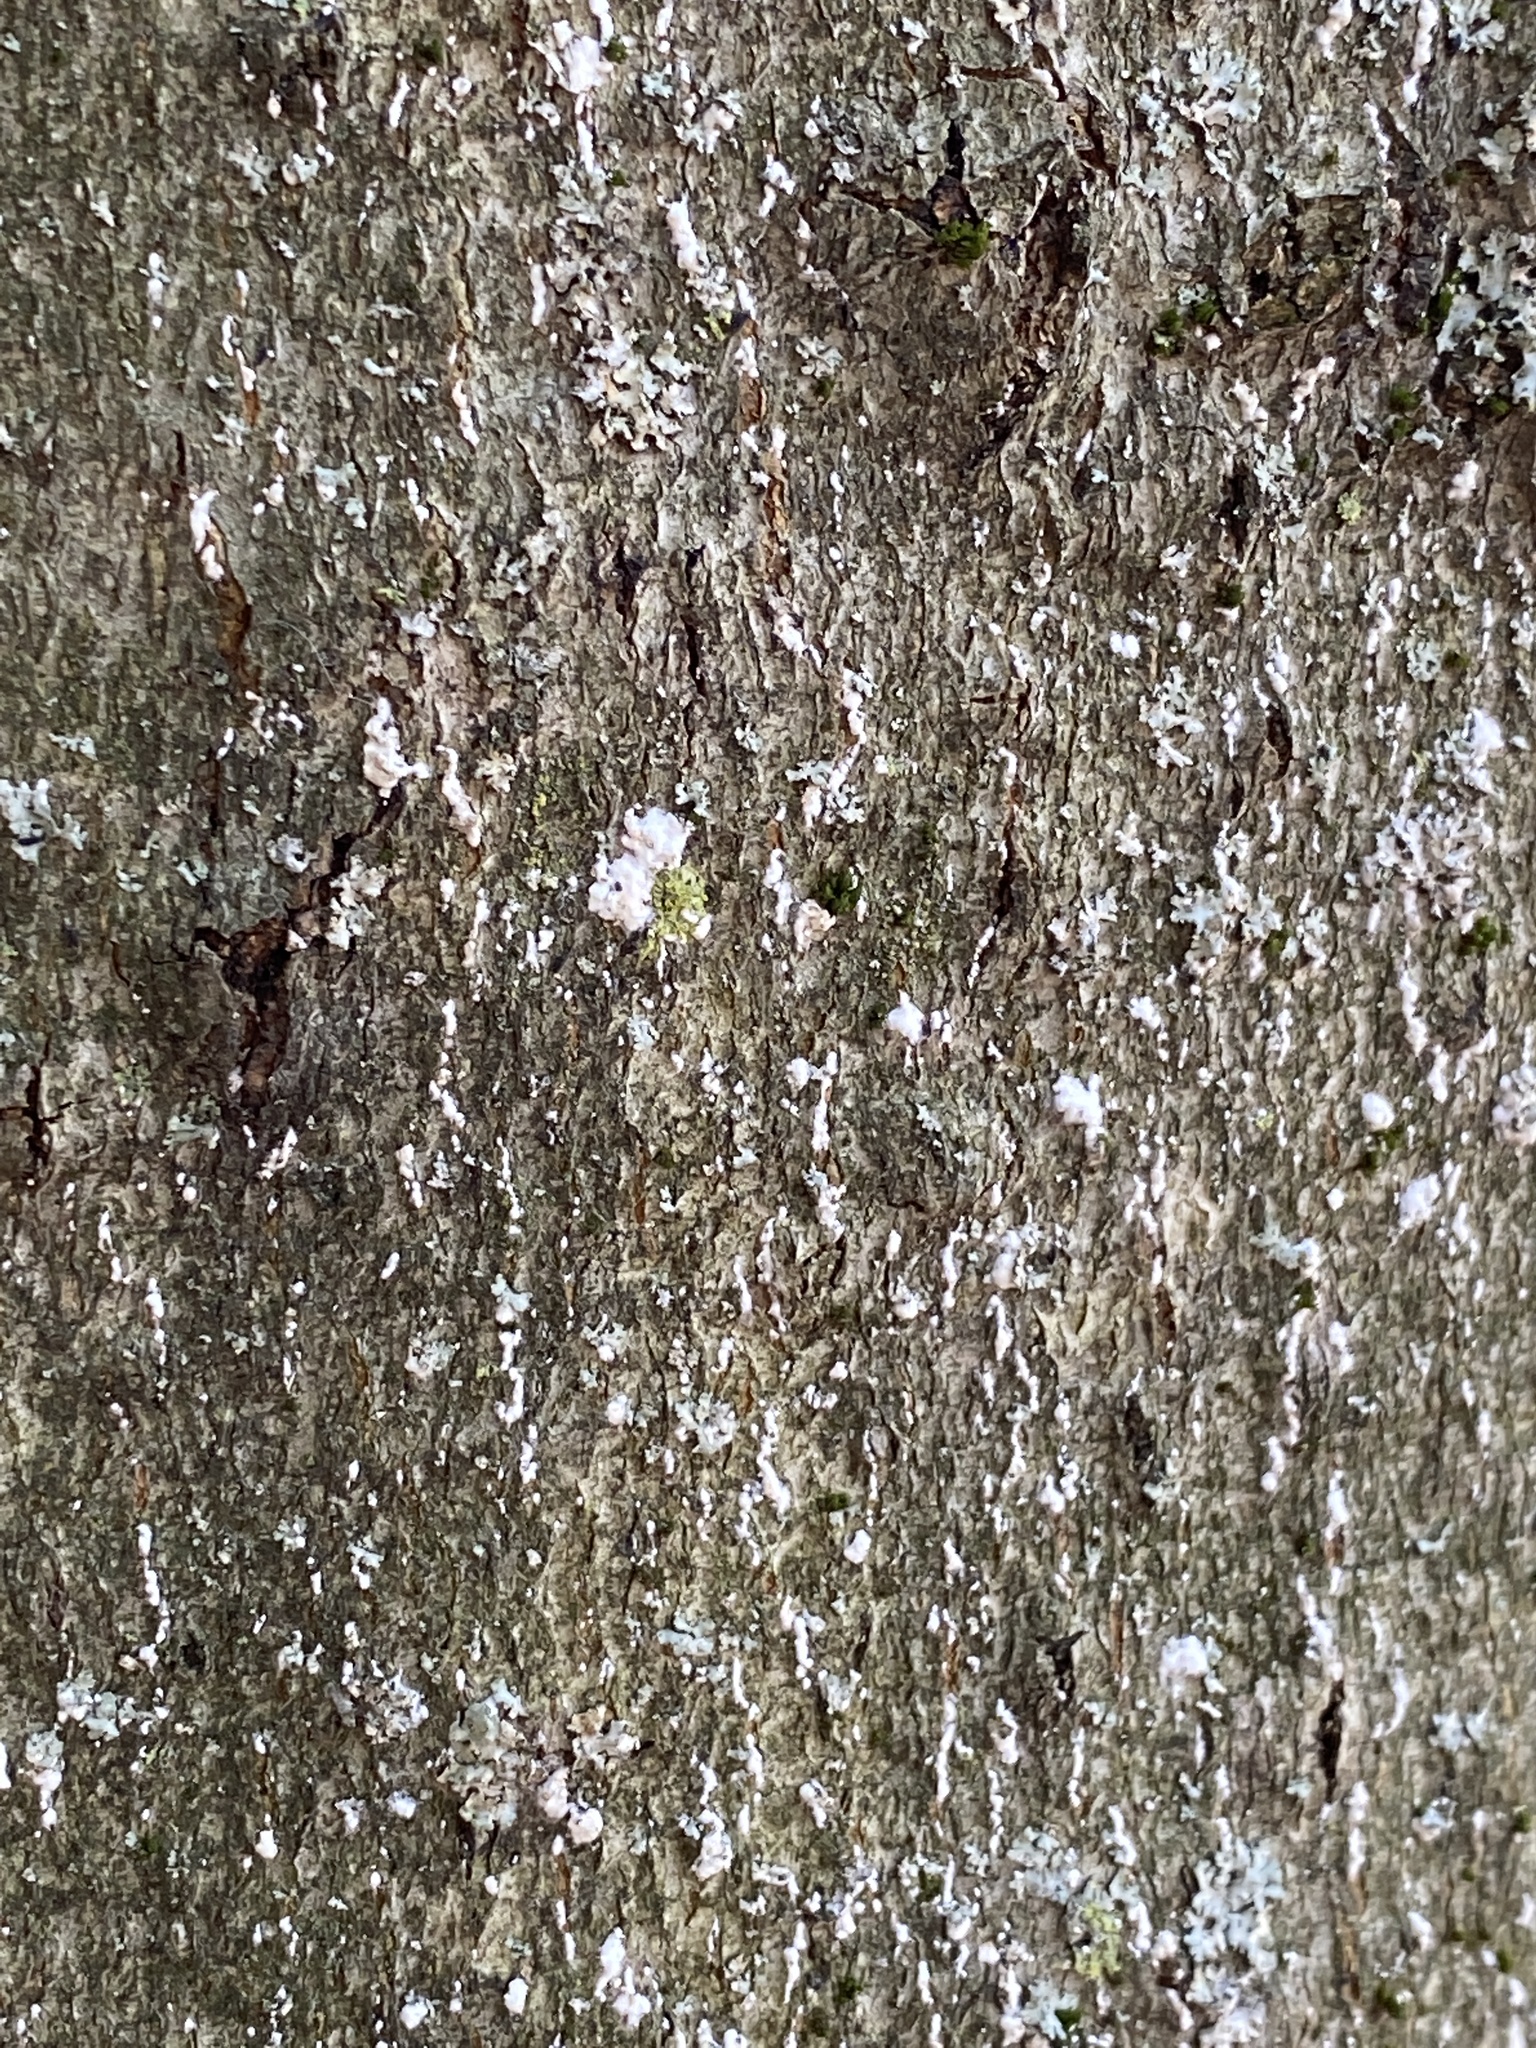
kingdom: Animalia
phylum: Arthropoda
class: Insecta
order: Hemiptera
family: Eriococcidae
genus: Cryptococcus
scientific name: Cryptococcus fagisuga
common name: Beech scale
